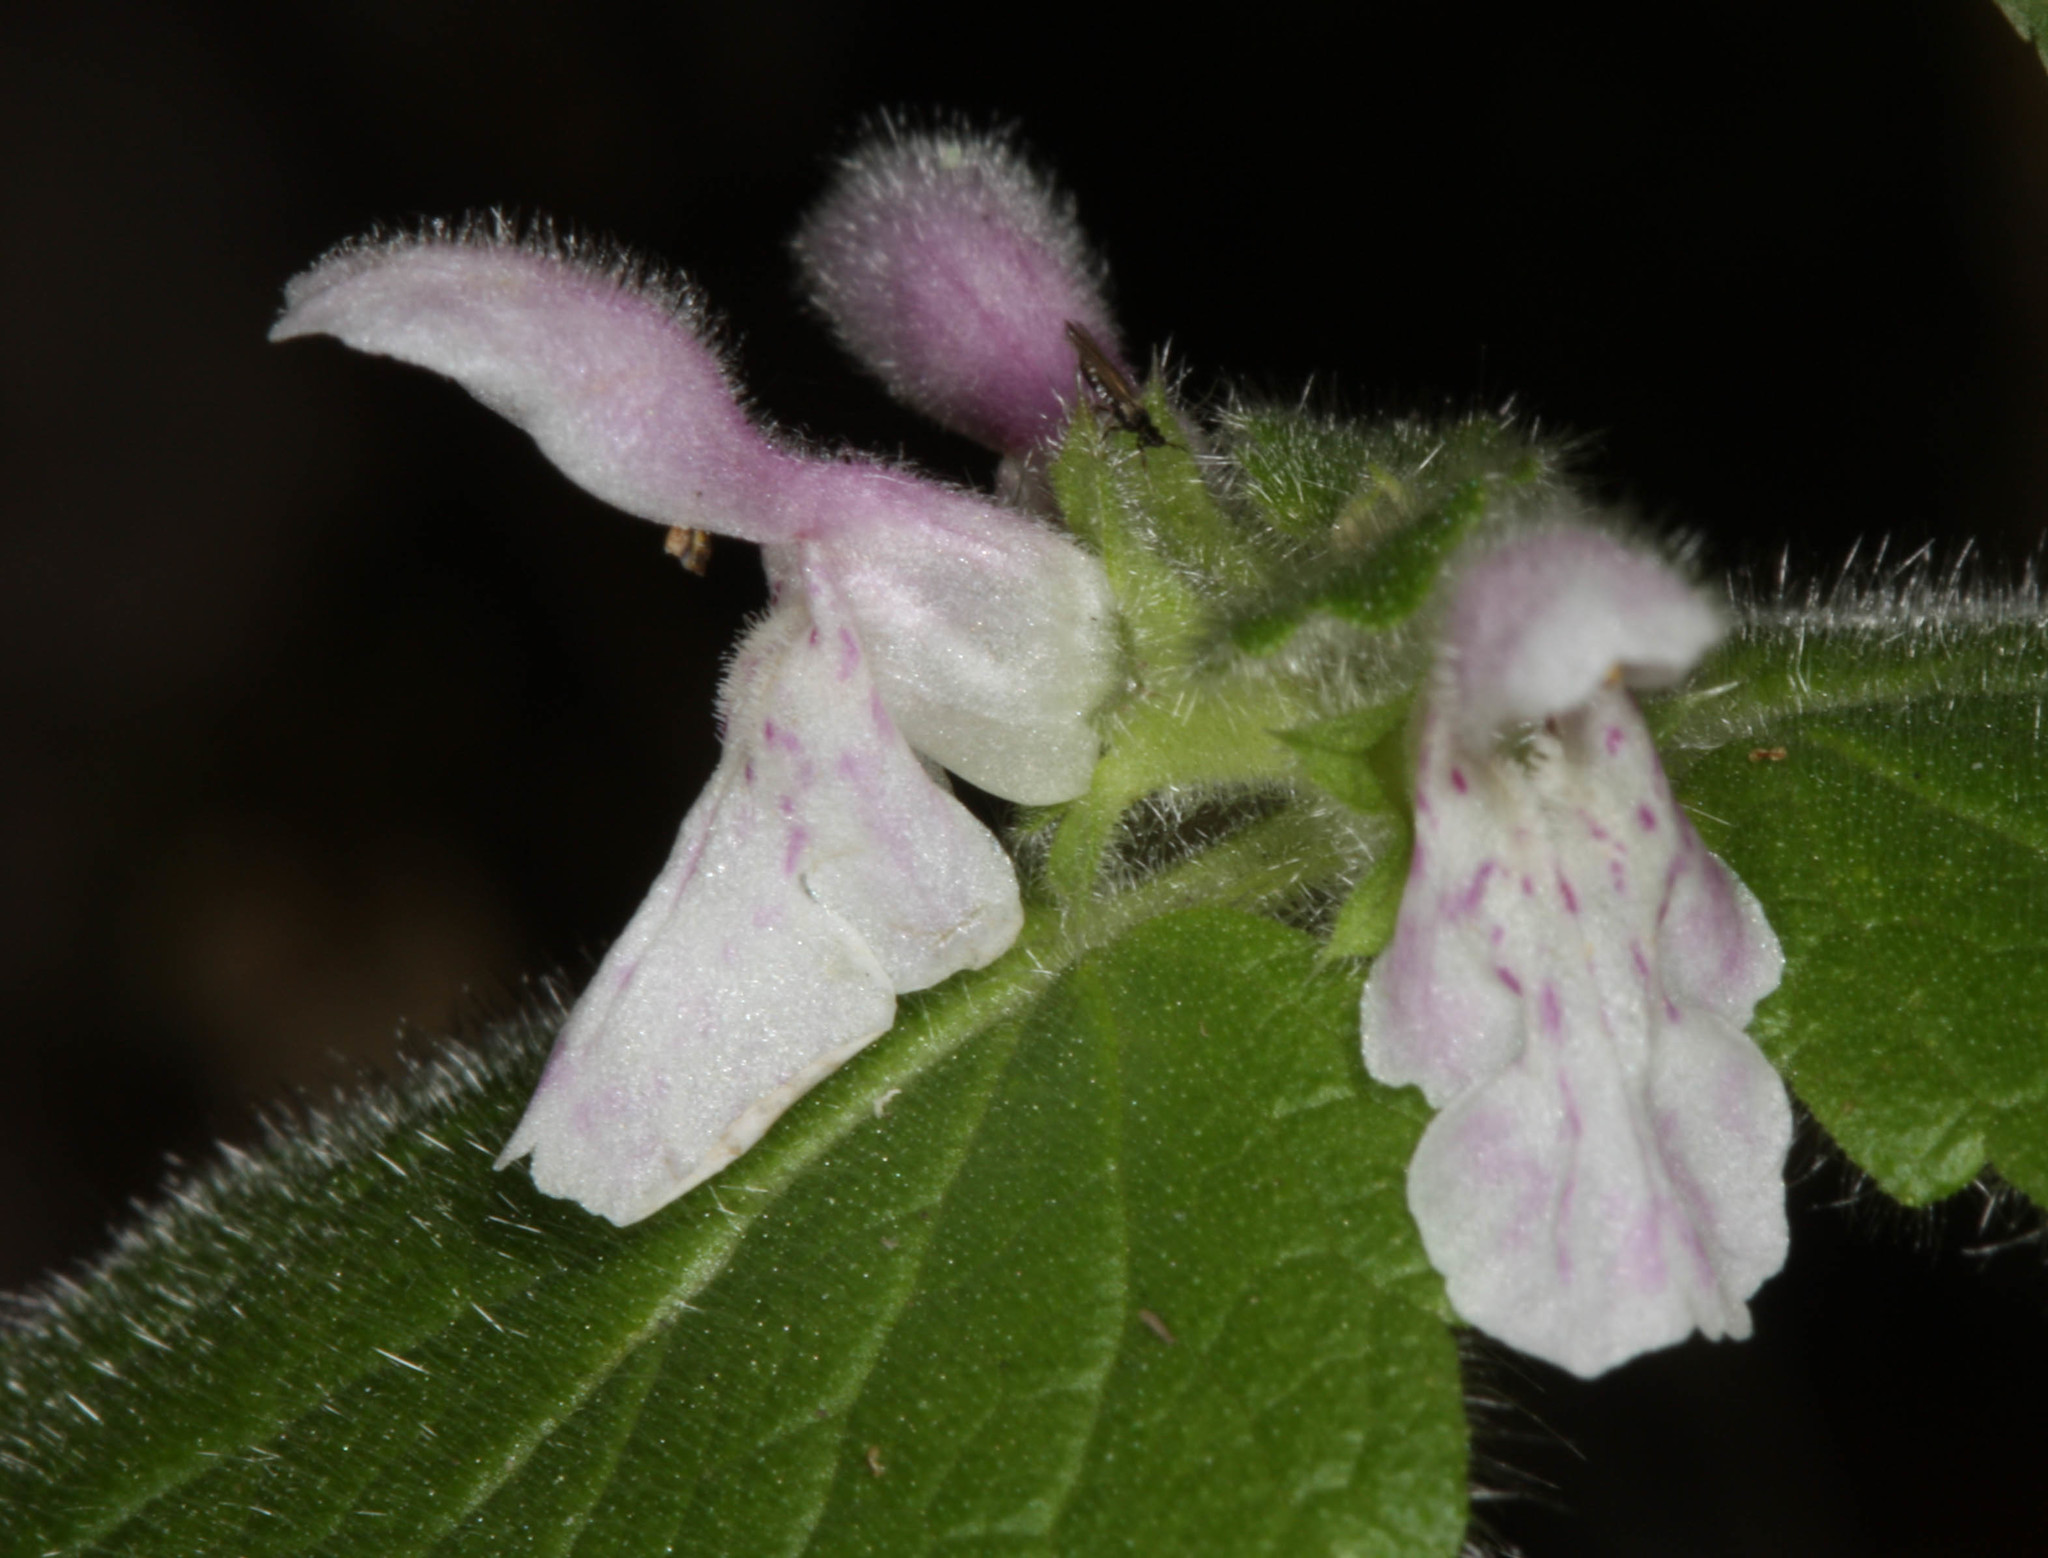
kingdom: Plantae
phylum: Tracheophyta
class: Magnoliopsida
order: Lamiales
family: Lamiaceae
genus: Stachys
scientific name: Stachys rigida
